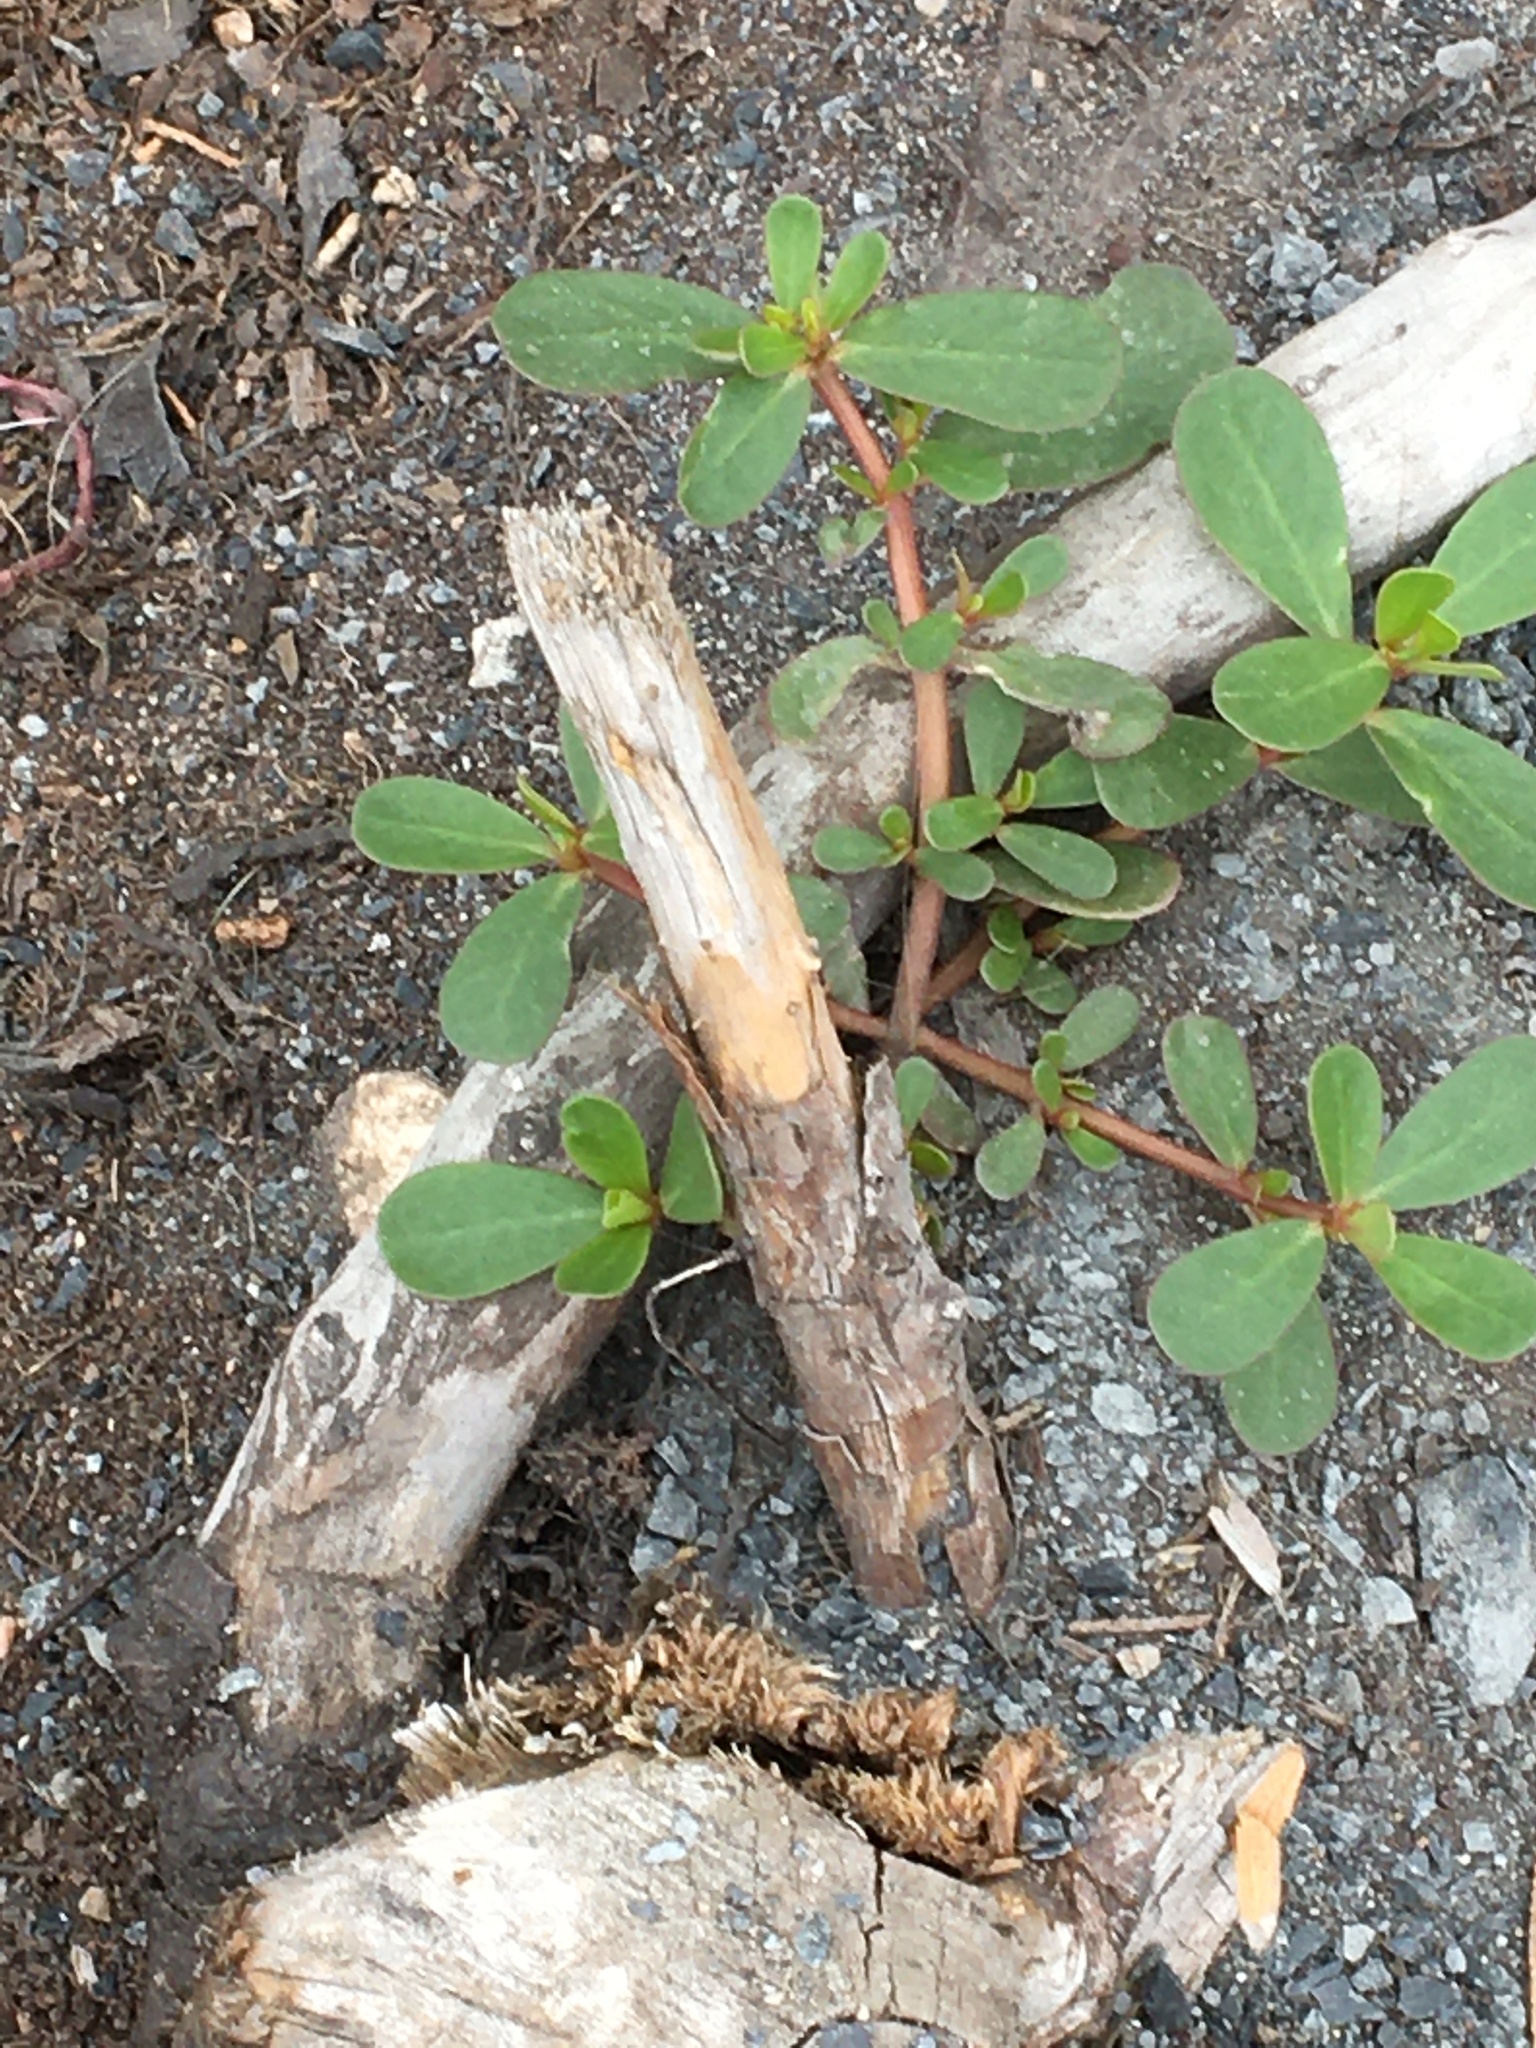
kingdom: Plantae
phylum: Tracheophyta
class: Magnoliopsida
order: Caryophyllales
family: Portulacaceae
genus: Portulaca
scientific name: Portulaca oleracea
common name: Common purslane
